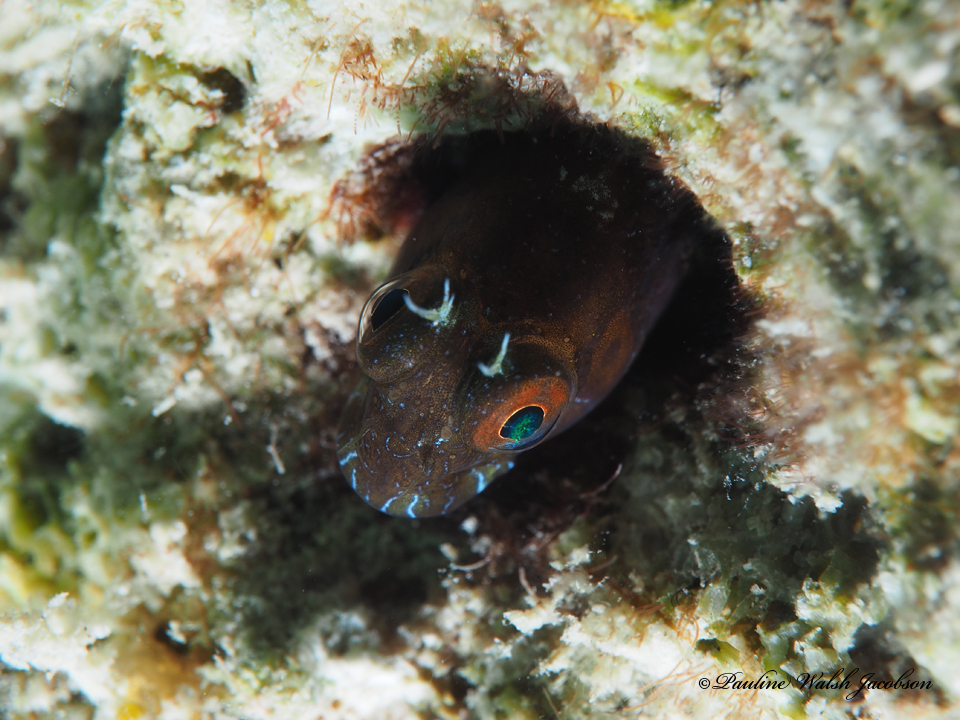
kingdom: Animalia
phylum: Chordata
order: Perciformes
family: Blenniidae
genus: Parablennius
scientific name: Parablennius marmoreus
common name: Seaweed blenny
